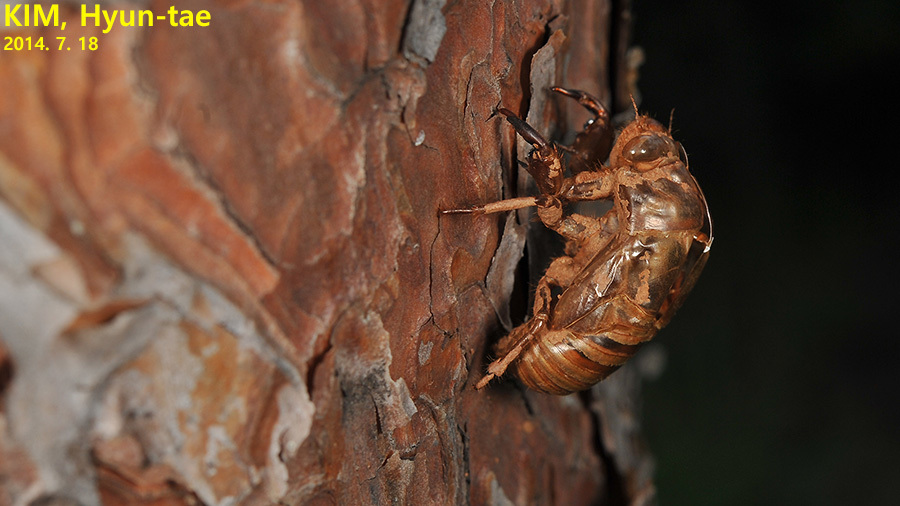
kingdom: Animalia
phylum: Arthropoda
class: Insecta
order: Hemiptera
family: Cicadidae
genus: Platypleura
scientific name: Platypleura kaempferi
